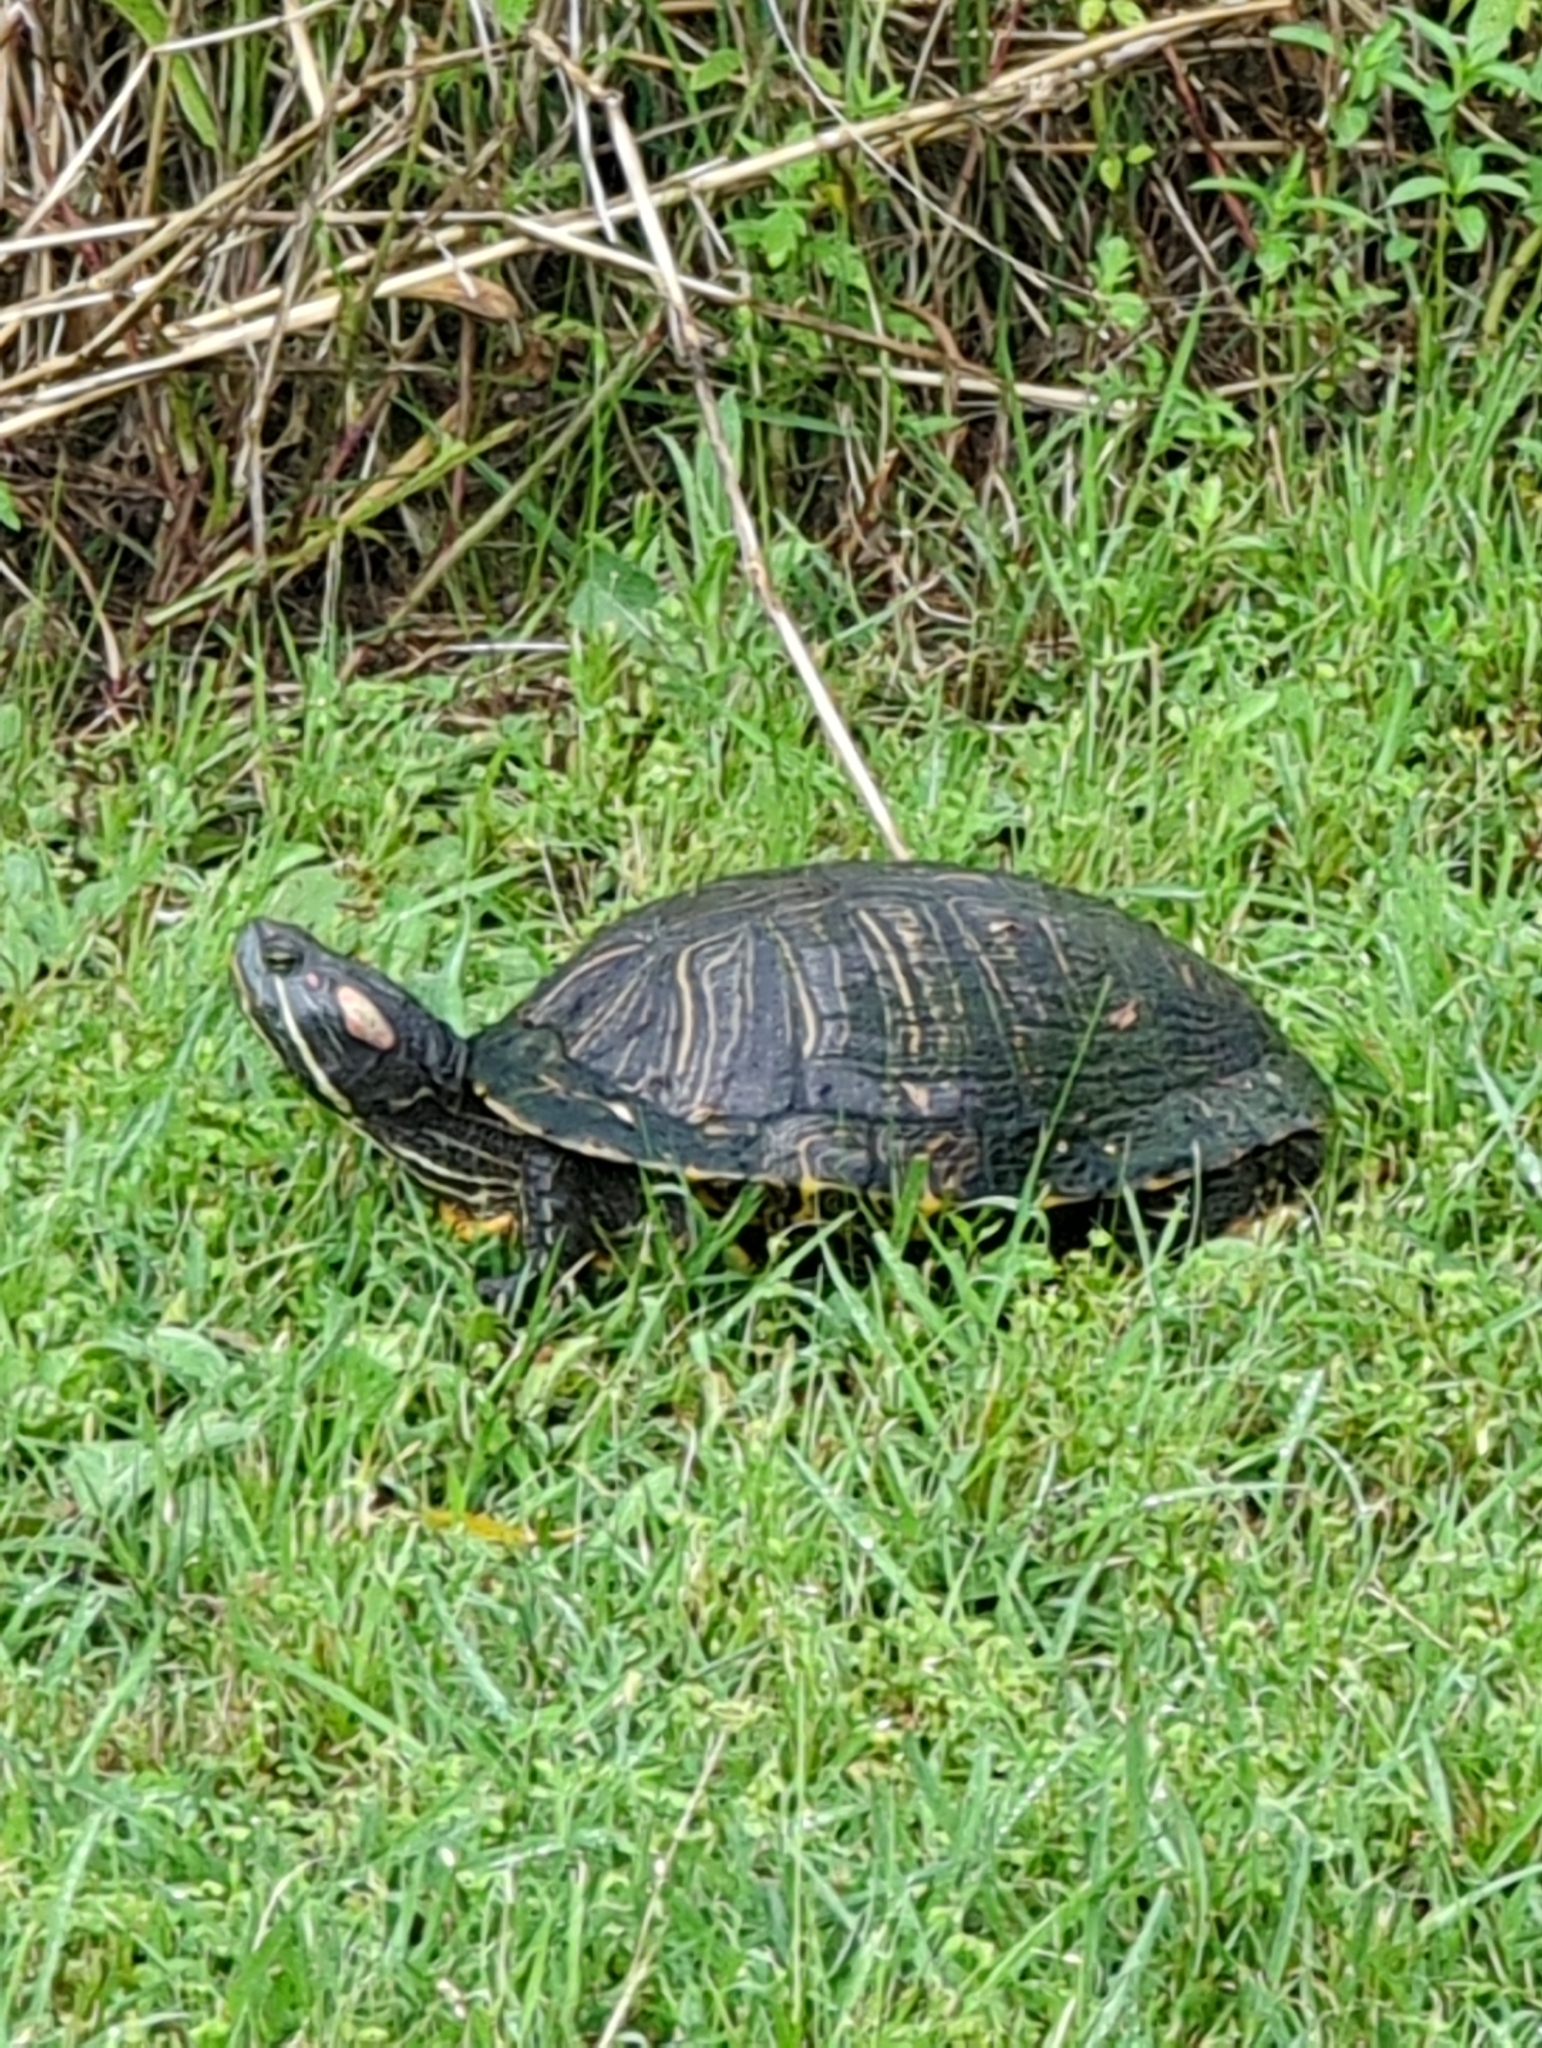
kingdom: Animalia
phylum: Chordata
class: Testudines
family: Emydidae
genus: Trachemys
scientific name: Trachemys scripta
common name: Slider
